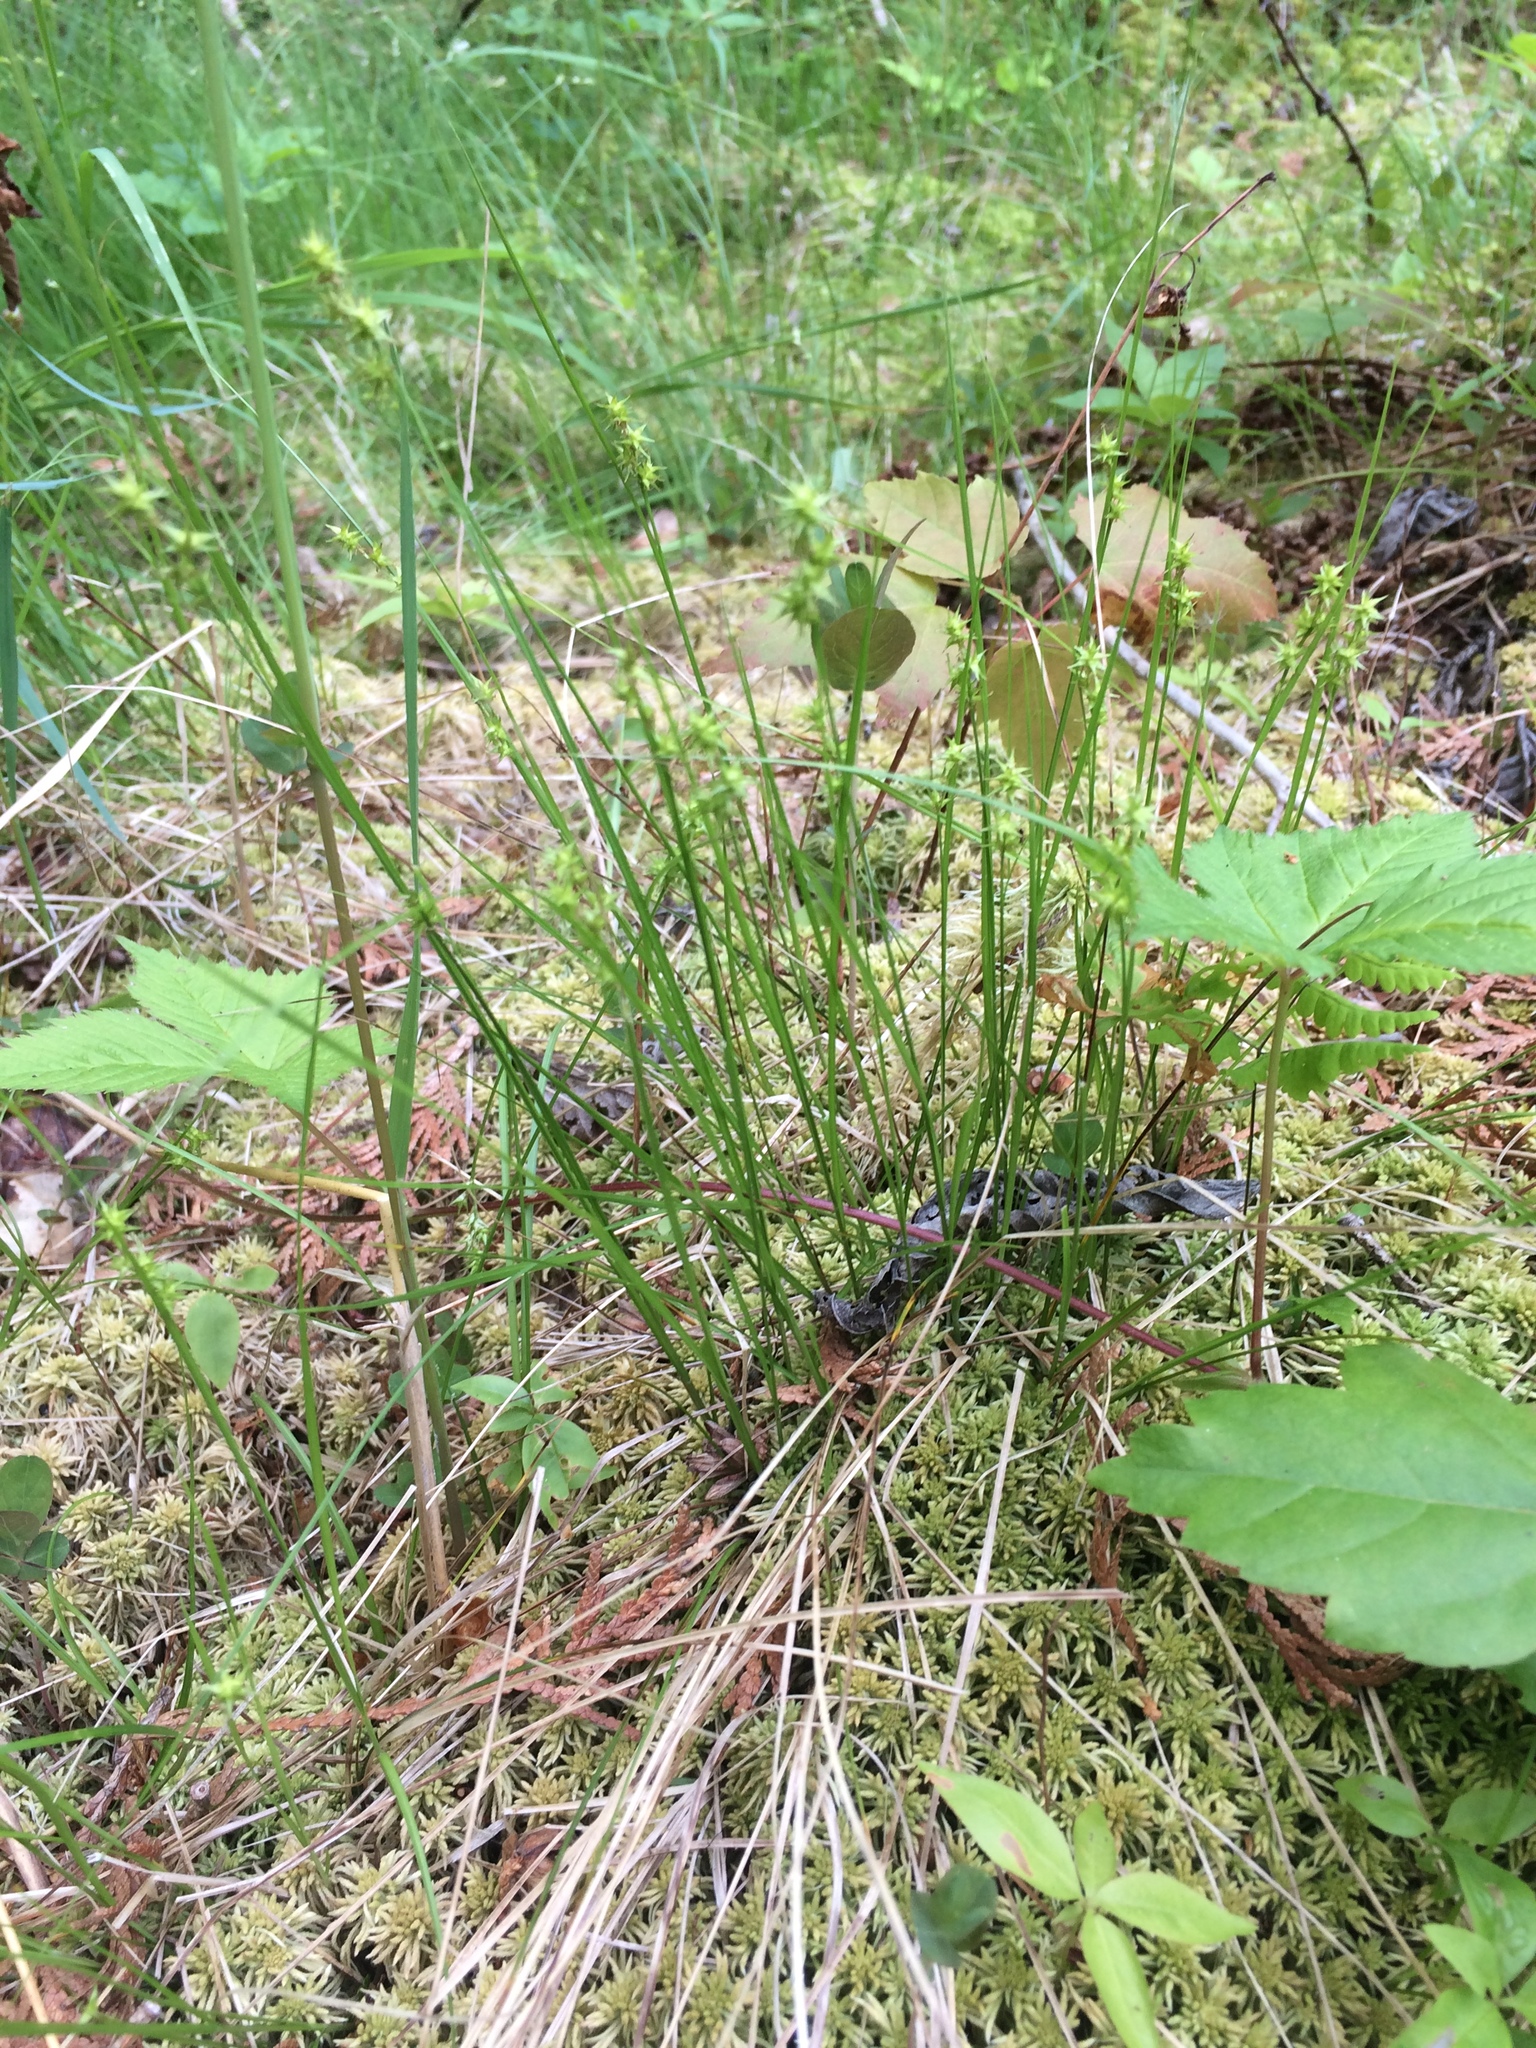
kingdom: Plantae
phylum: Tracheophyta
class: Liliopsida
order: Poales
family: Cyperaceae
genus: Carex
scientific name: Carex echinata
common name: Star sedge
